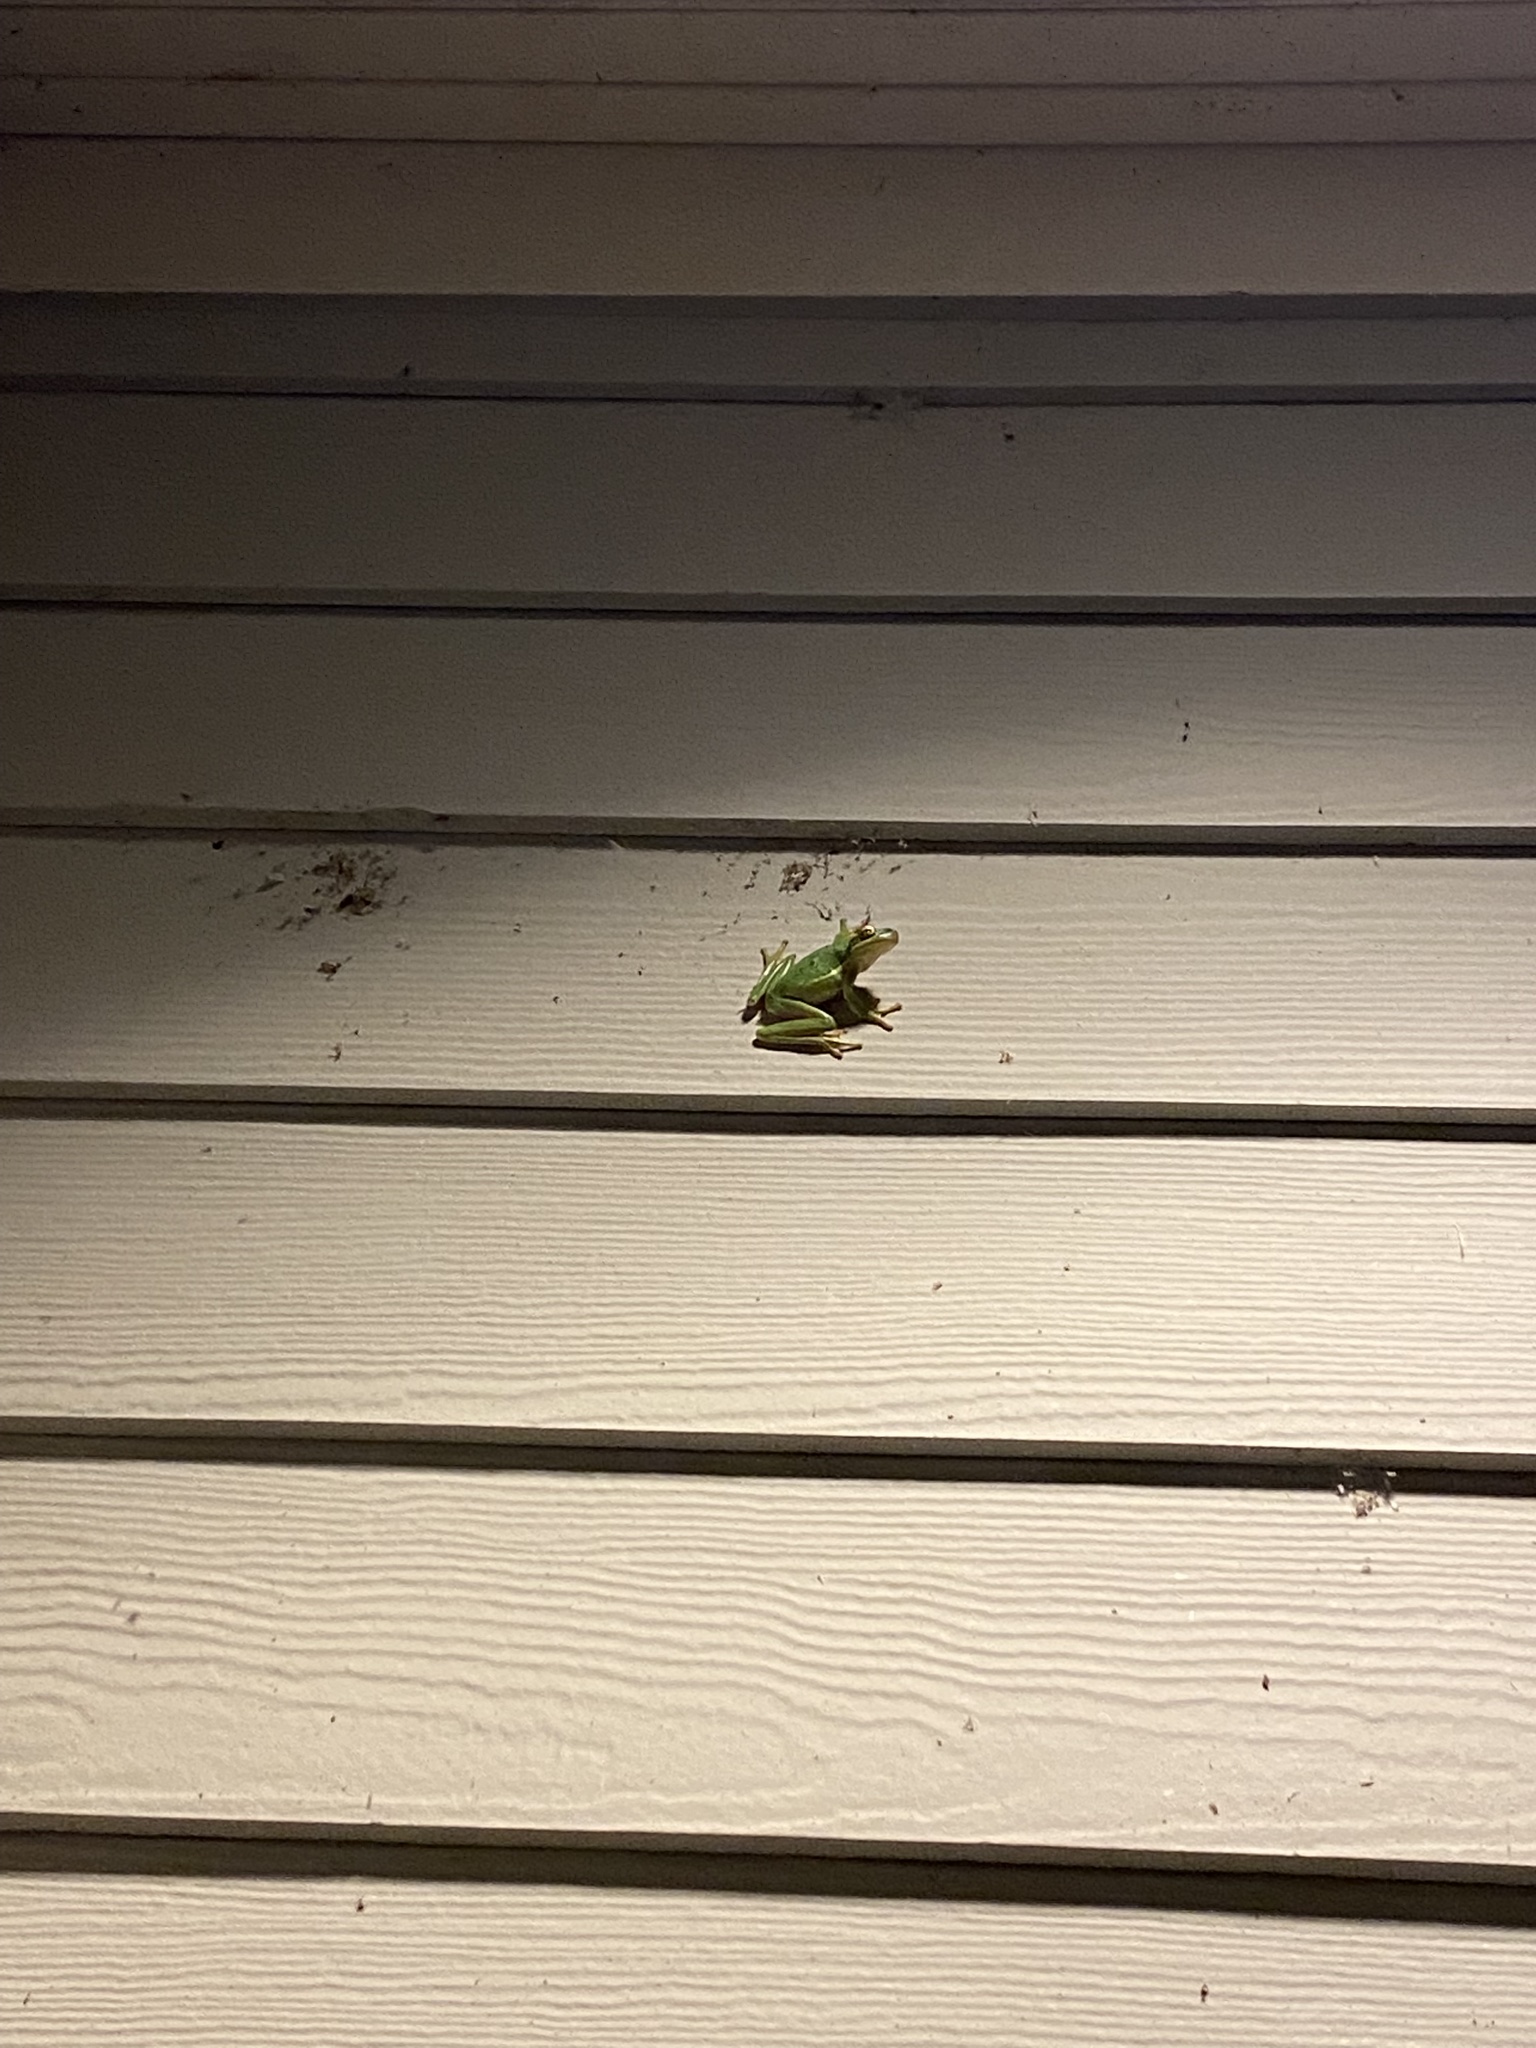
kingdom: Animalia
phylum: Chordata
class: Amphibia
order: Anura
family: Hylidae
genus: Dryophytes
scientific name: Dryophytes cinereus
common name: Green treefrog
